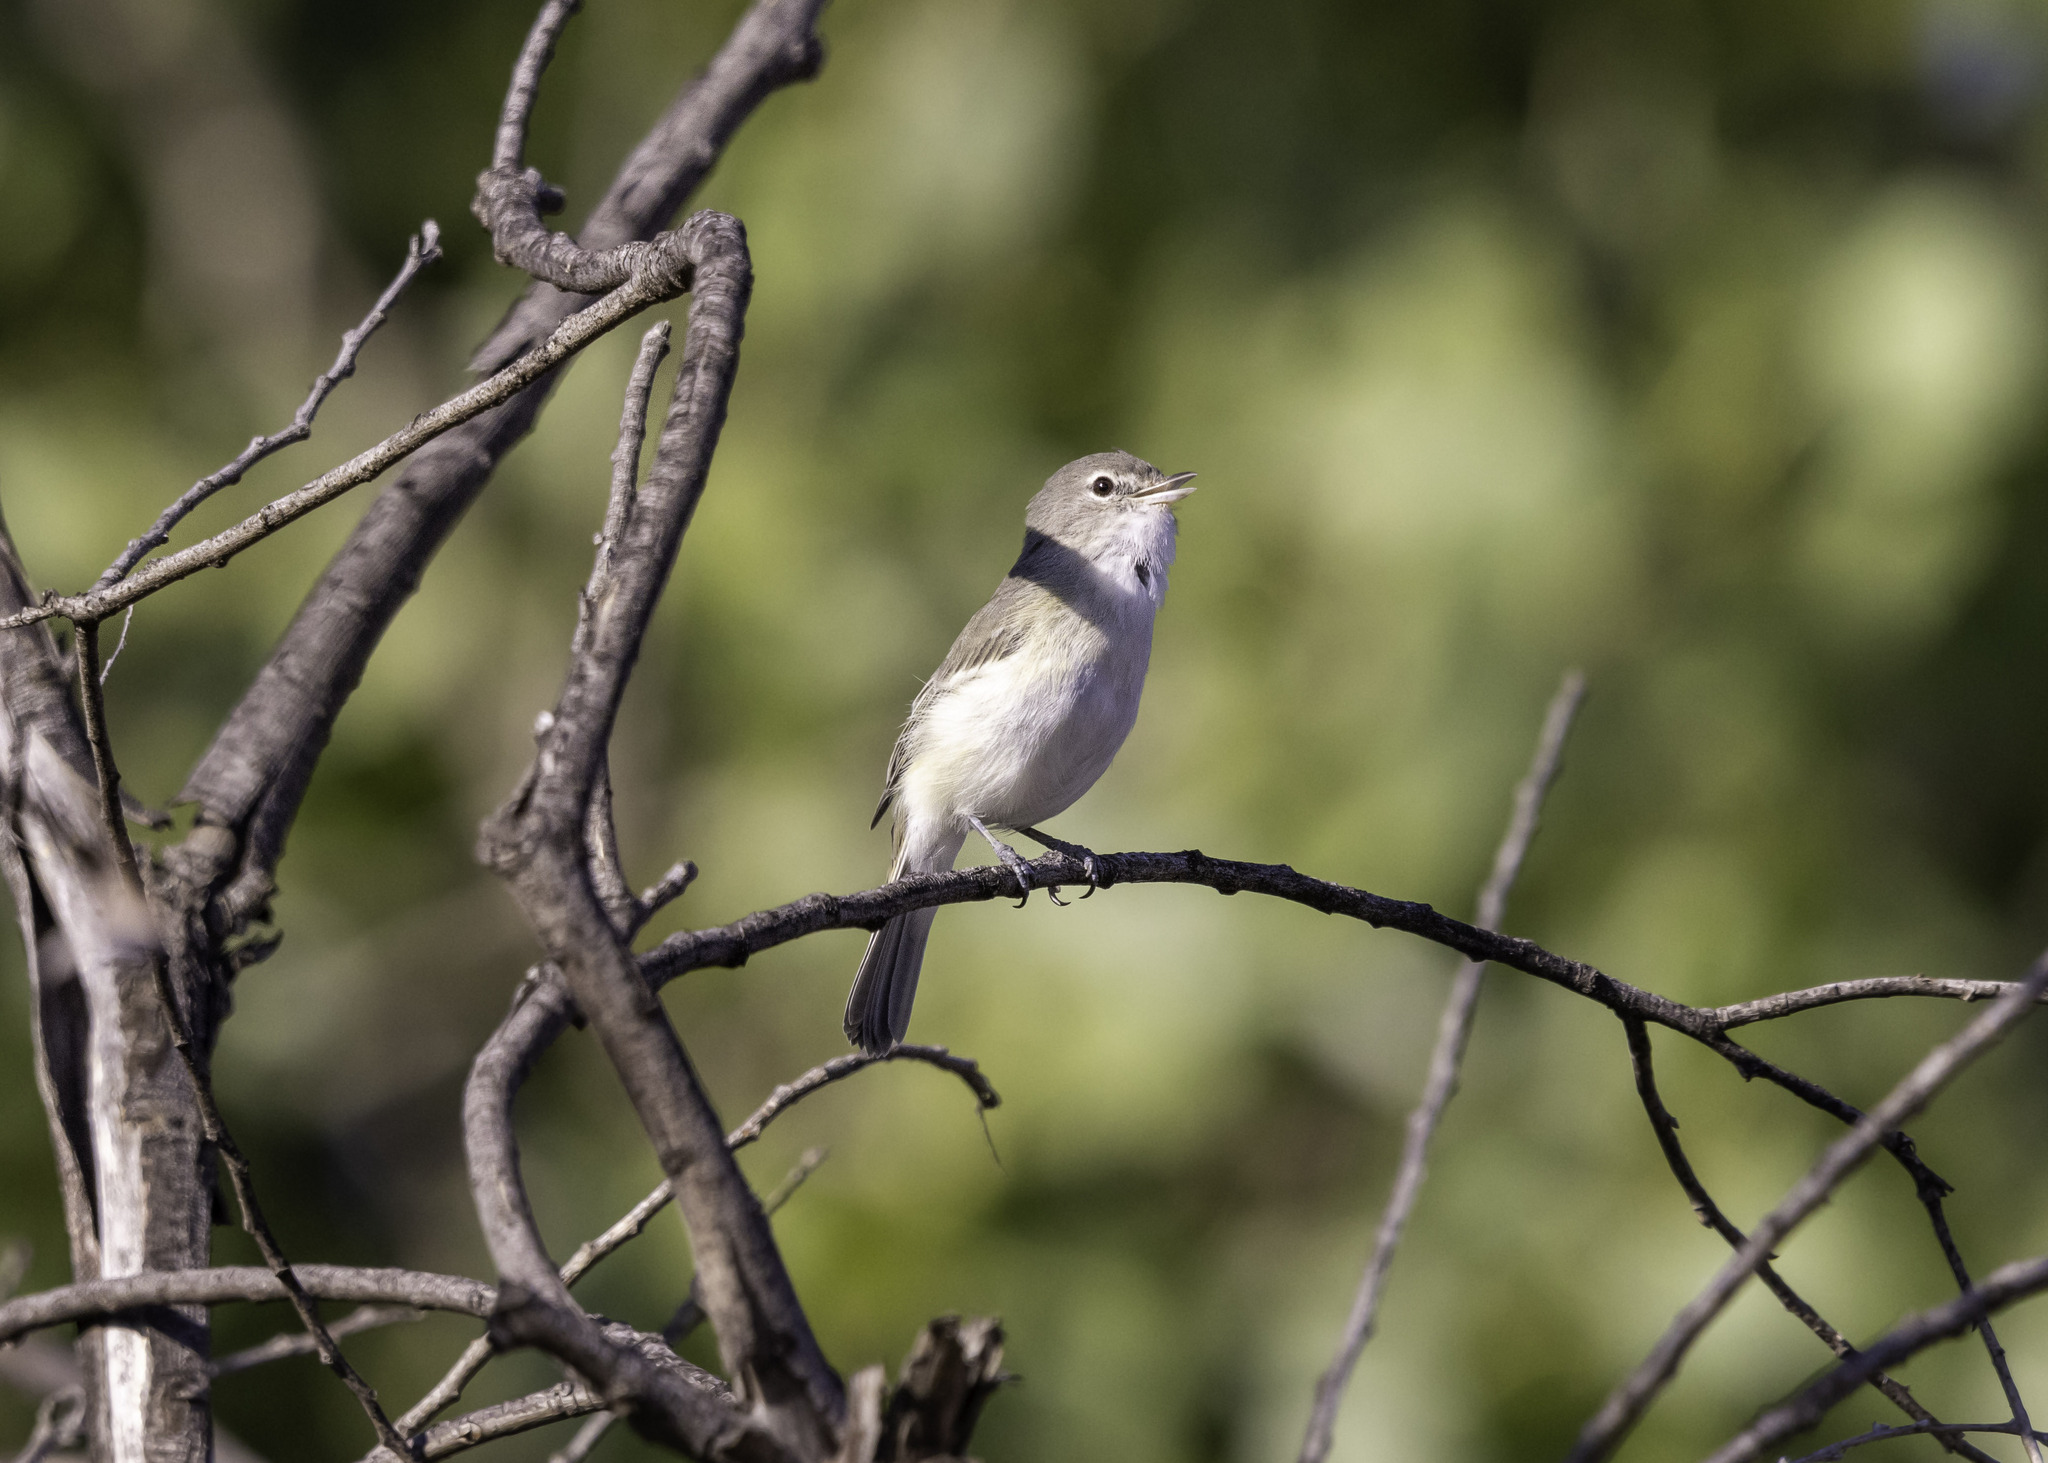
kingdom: Animalia
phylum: Chordata
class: Aves
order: Passeriformes
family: Vireonidae
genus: Vireo
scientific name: Vireo bellii
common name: Bell's vireo
